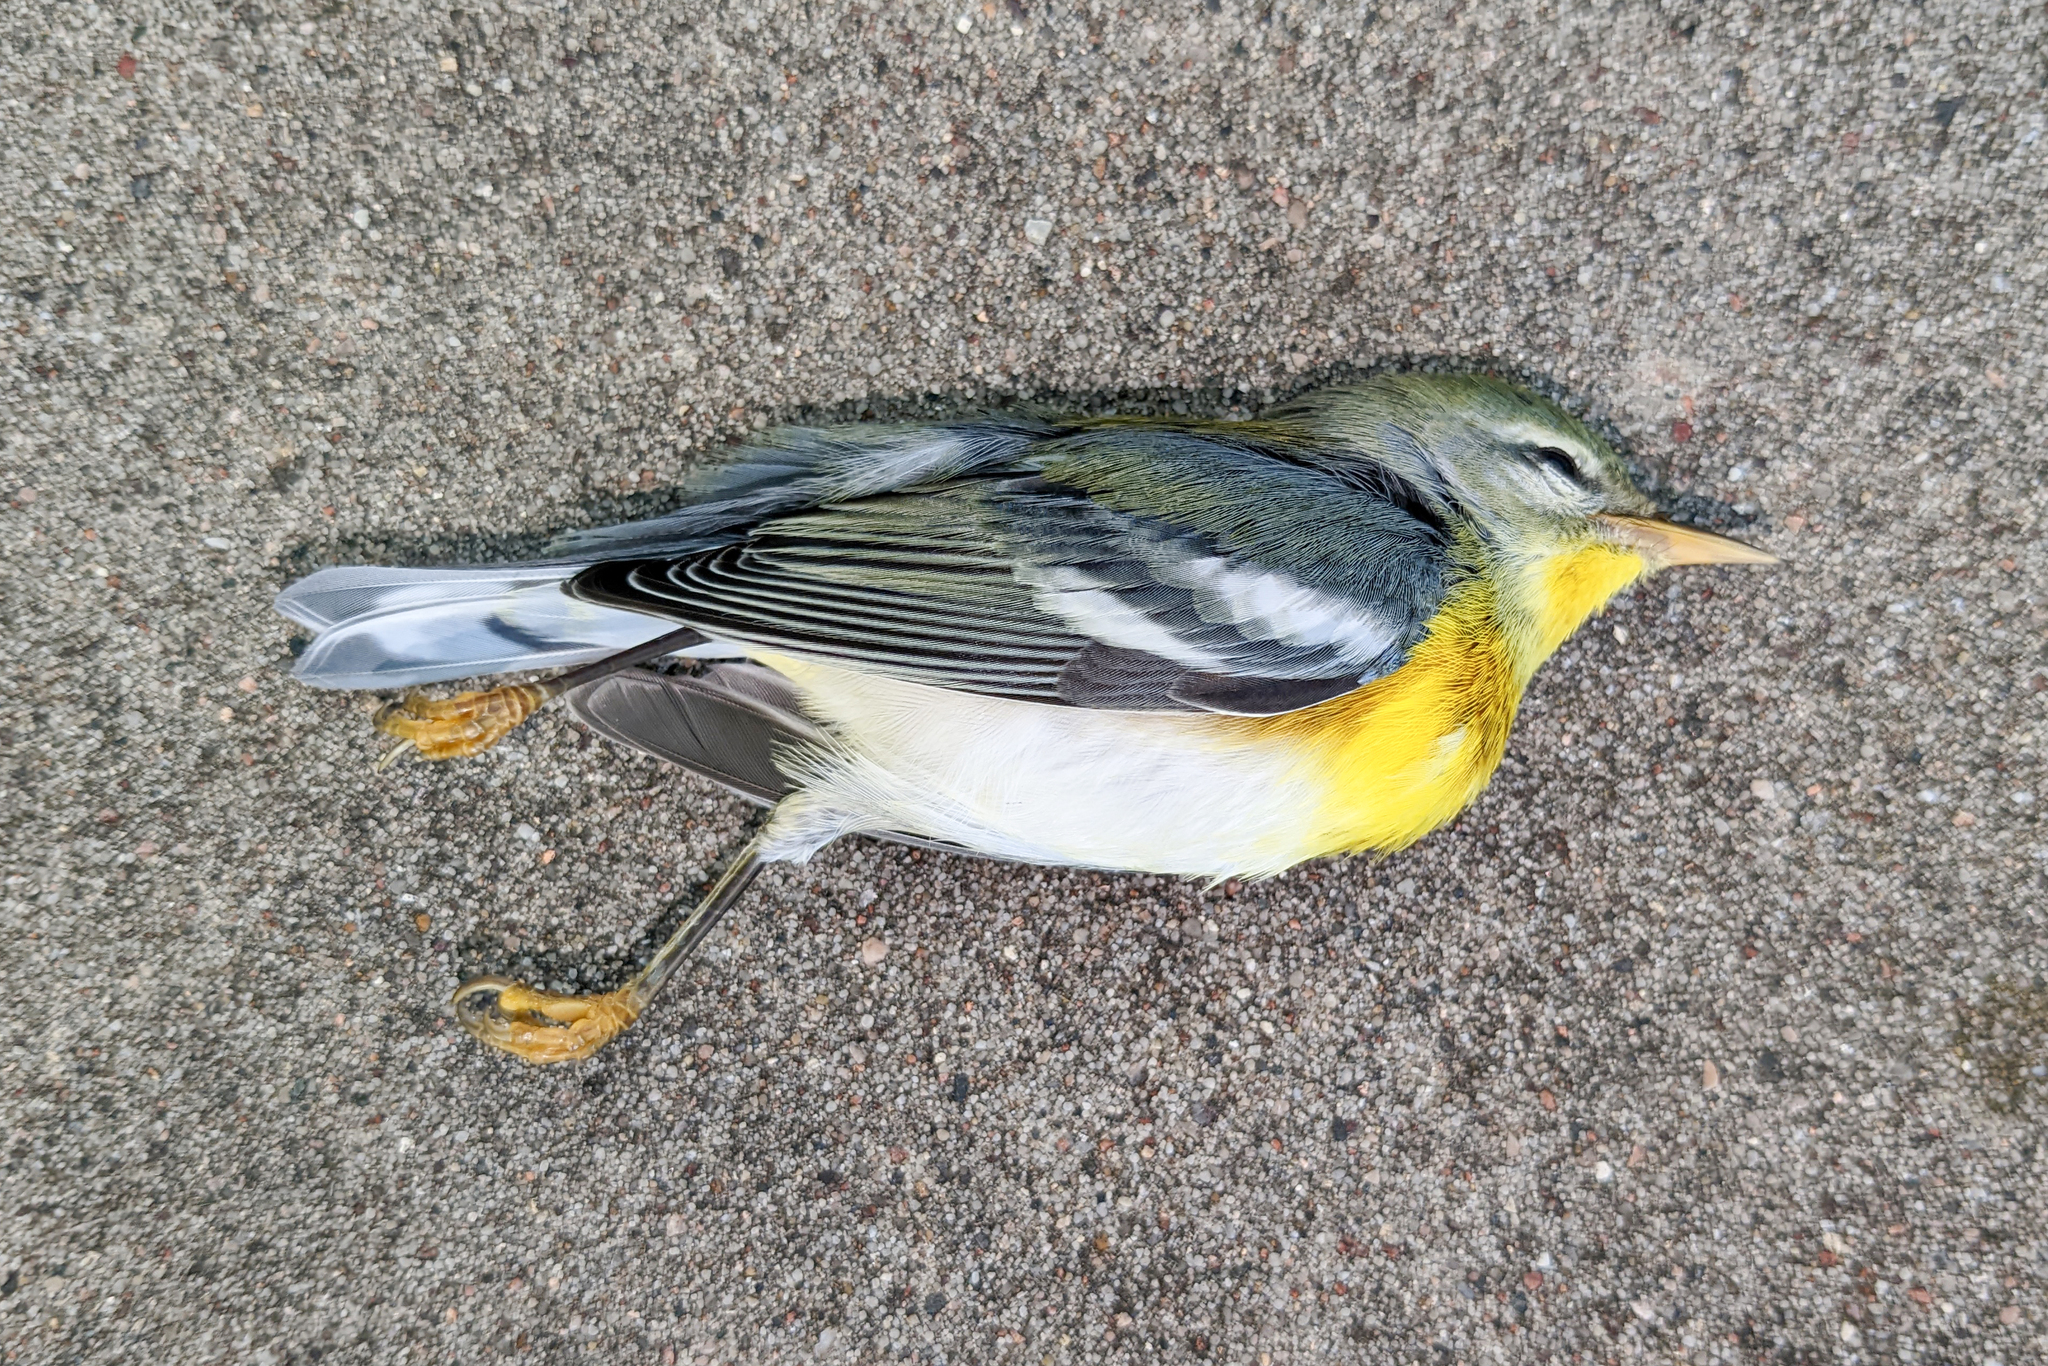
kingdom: Animalia
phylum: Chordata
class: Aves
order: Passeriformes
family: Parulidae
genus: Setophaga
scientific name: Setophaga americana
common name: Northern parula
